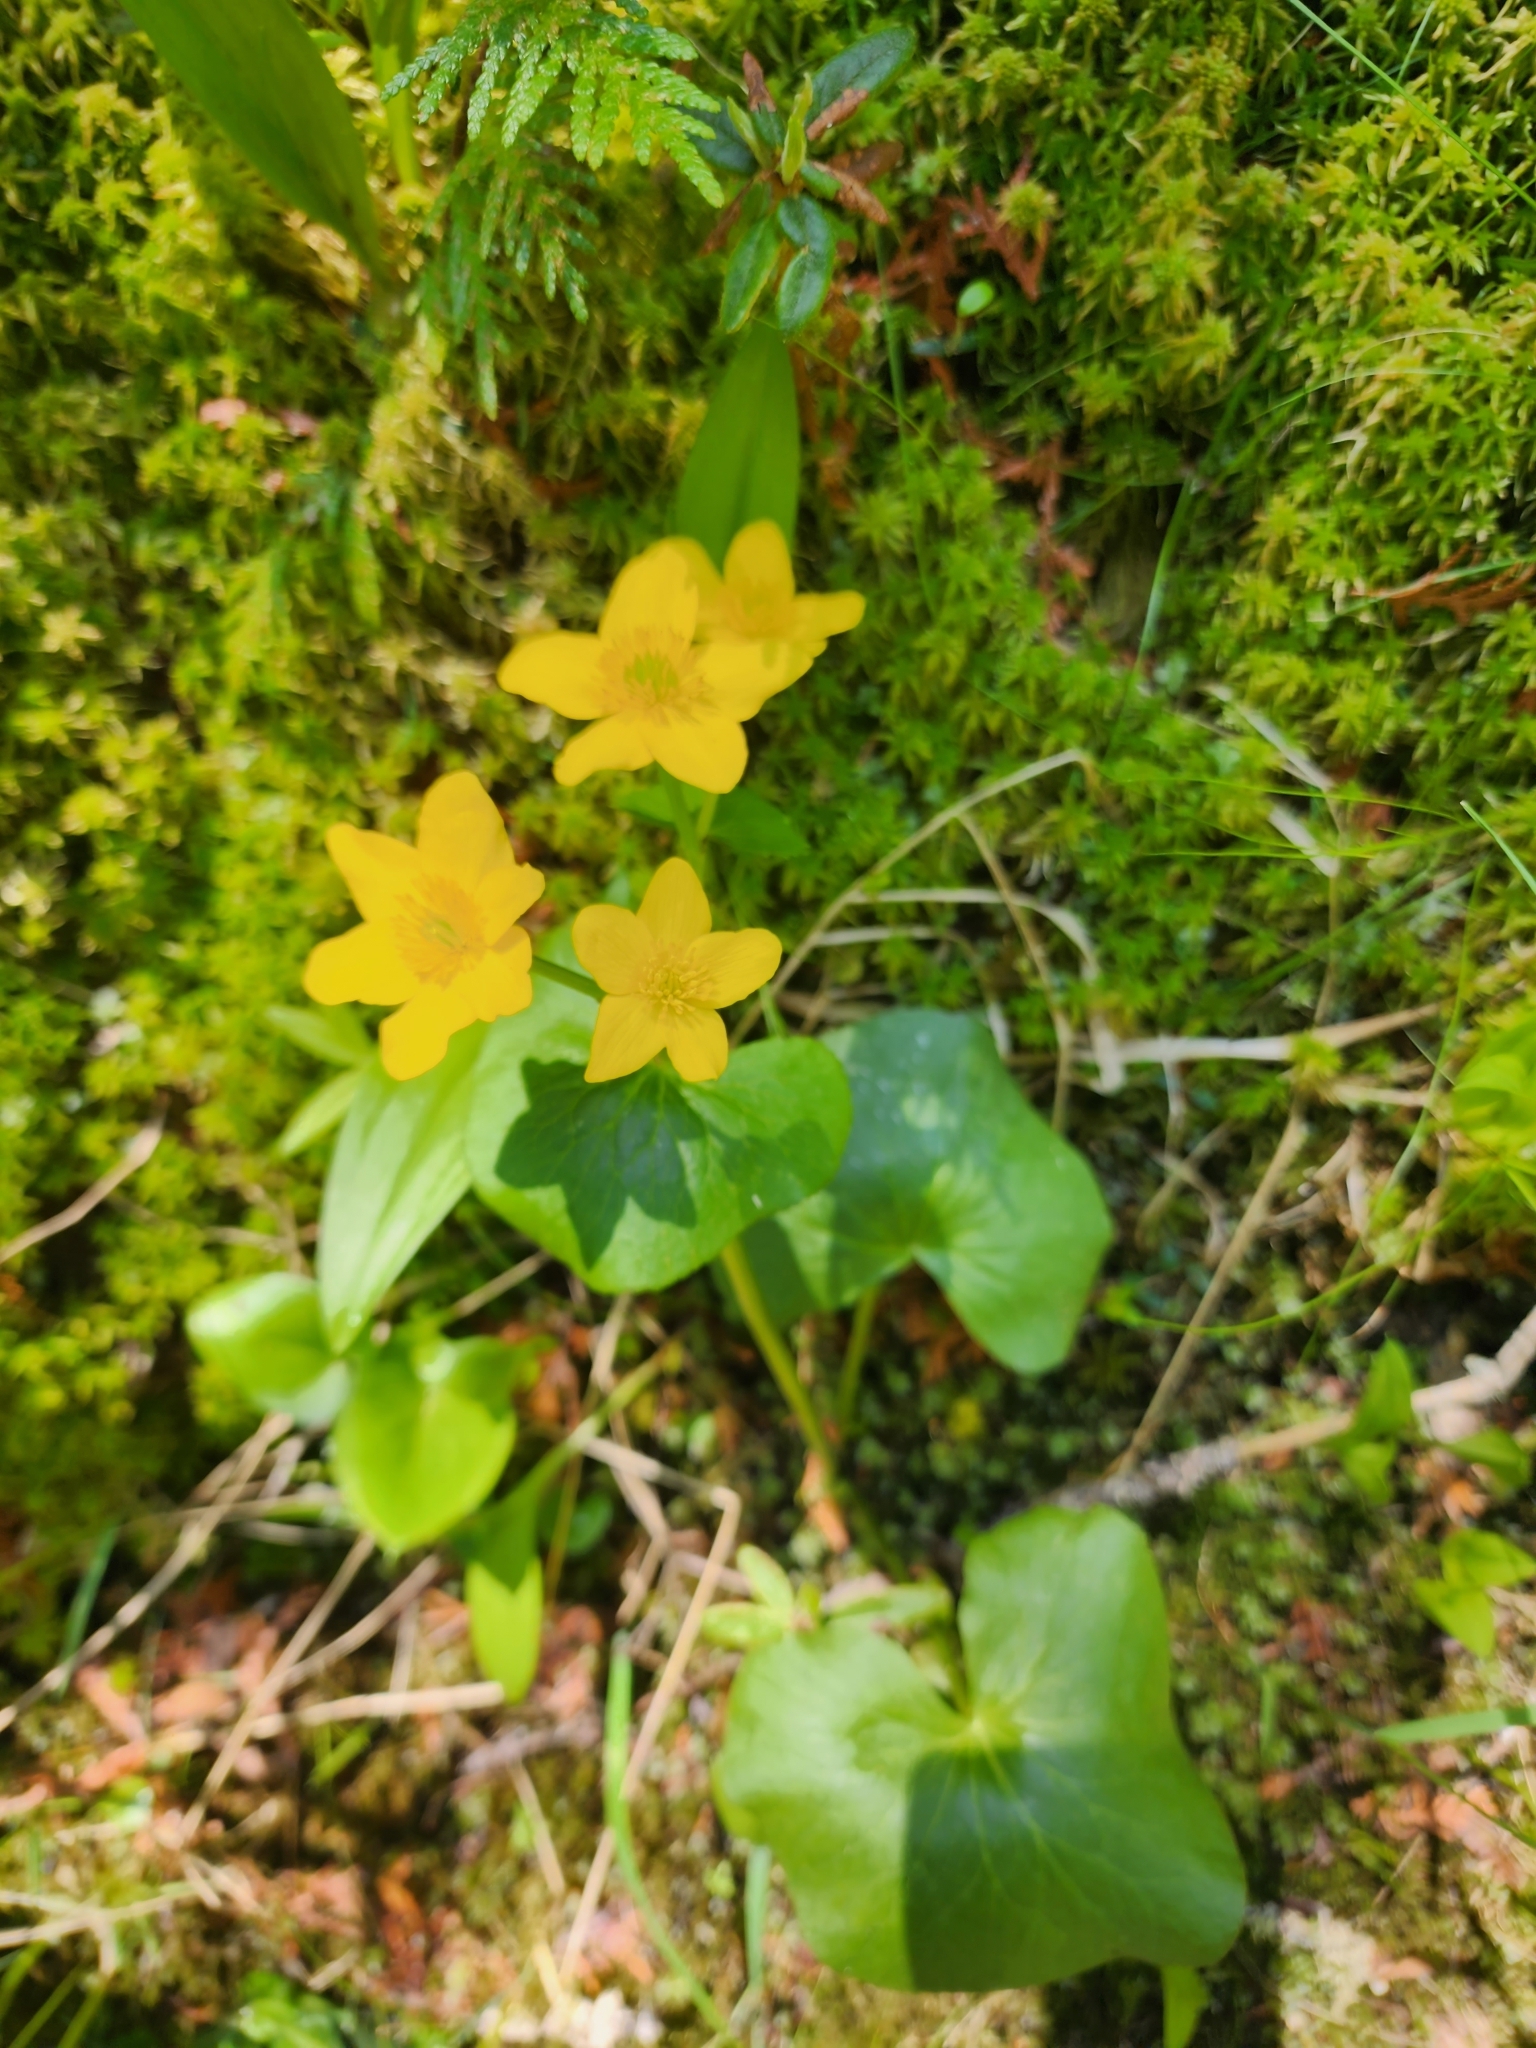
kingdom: Plantae
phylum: Tracheophyta
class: Magnoliopsida
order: Ranunculales
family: Ranunculaceae
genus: Caltha
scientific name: Caltha palustris
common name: Marsh marigold
